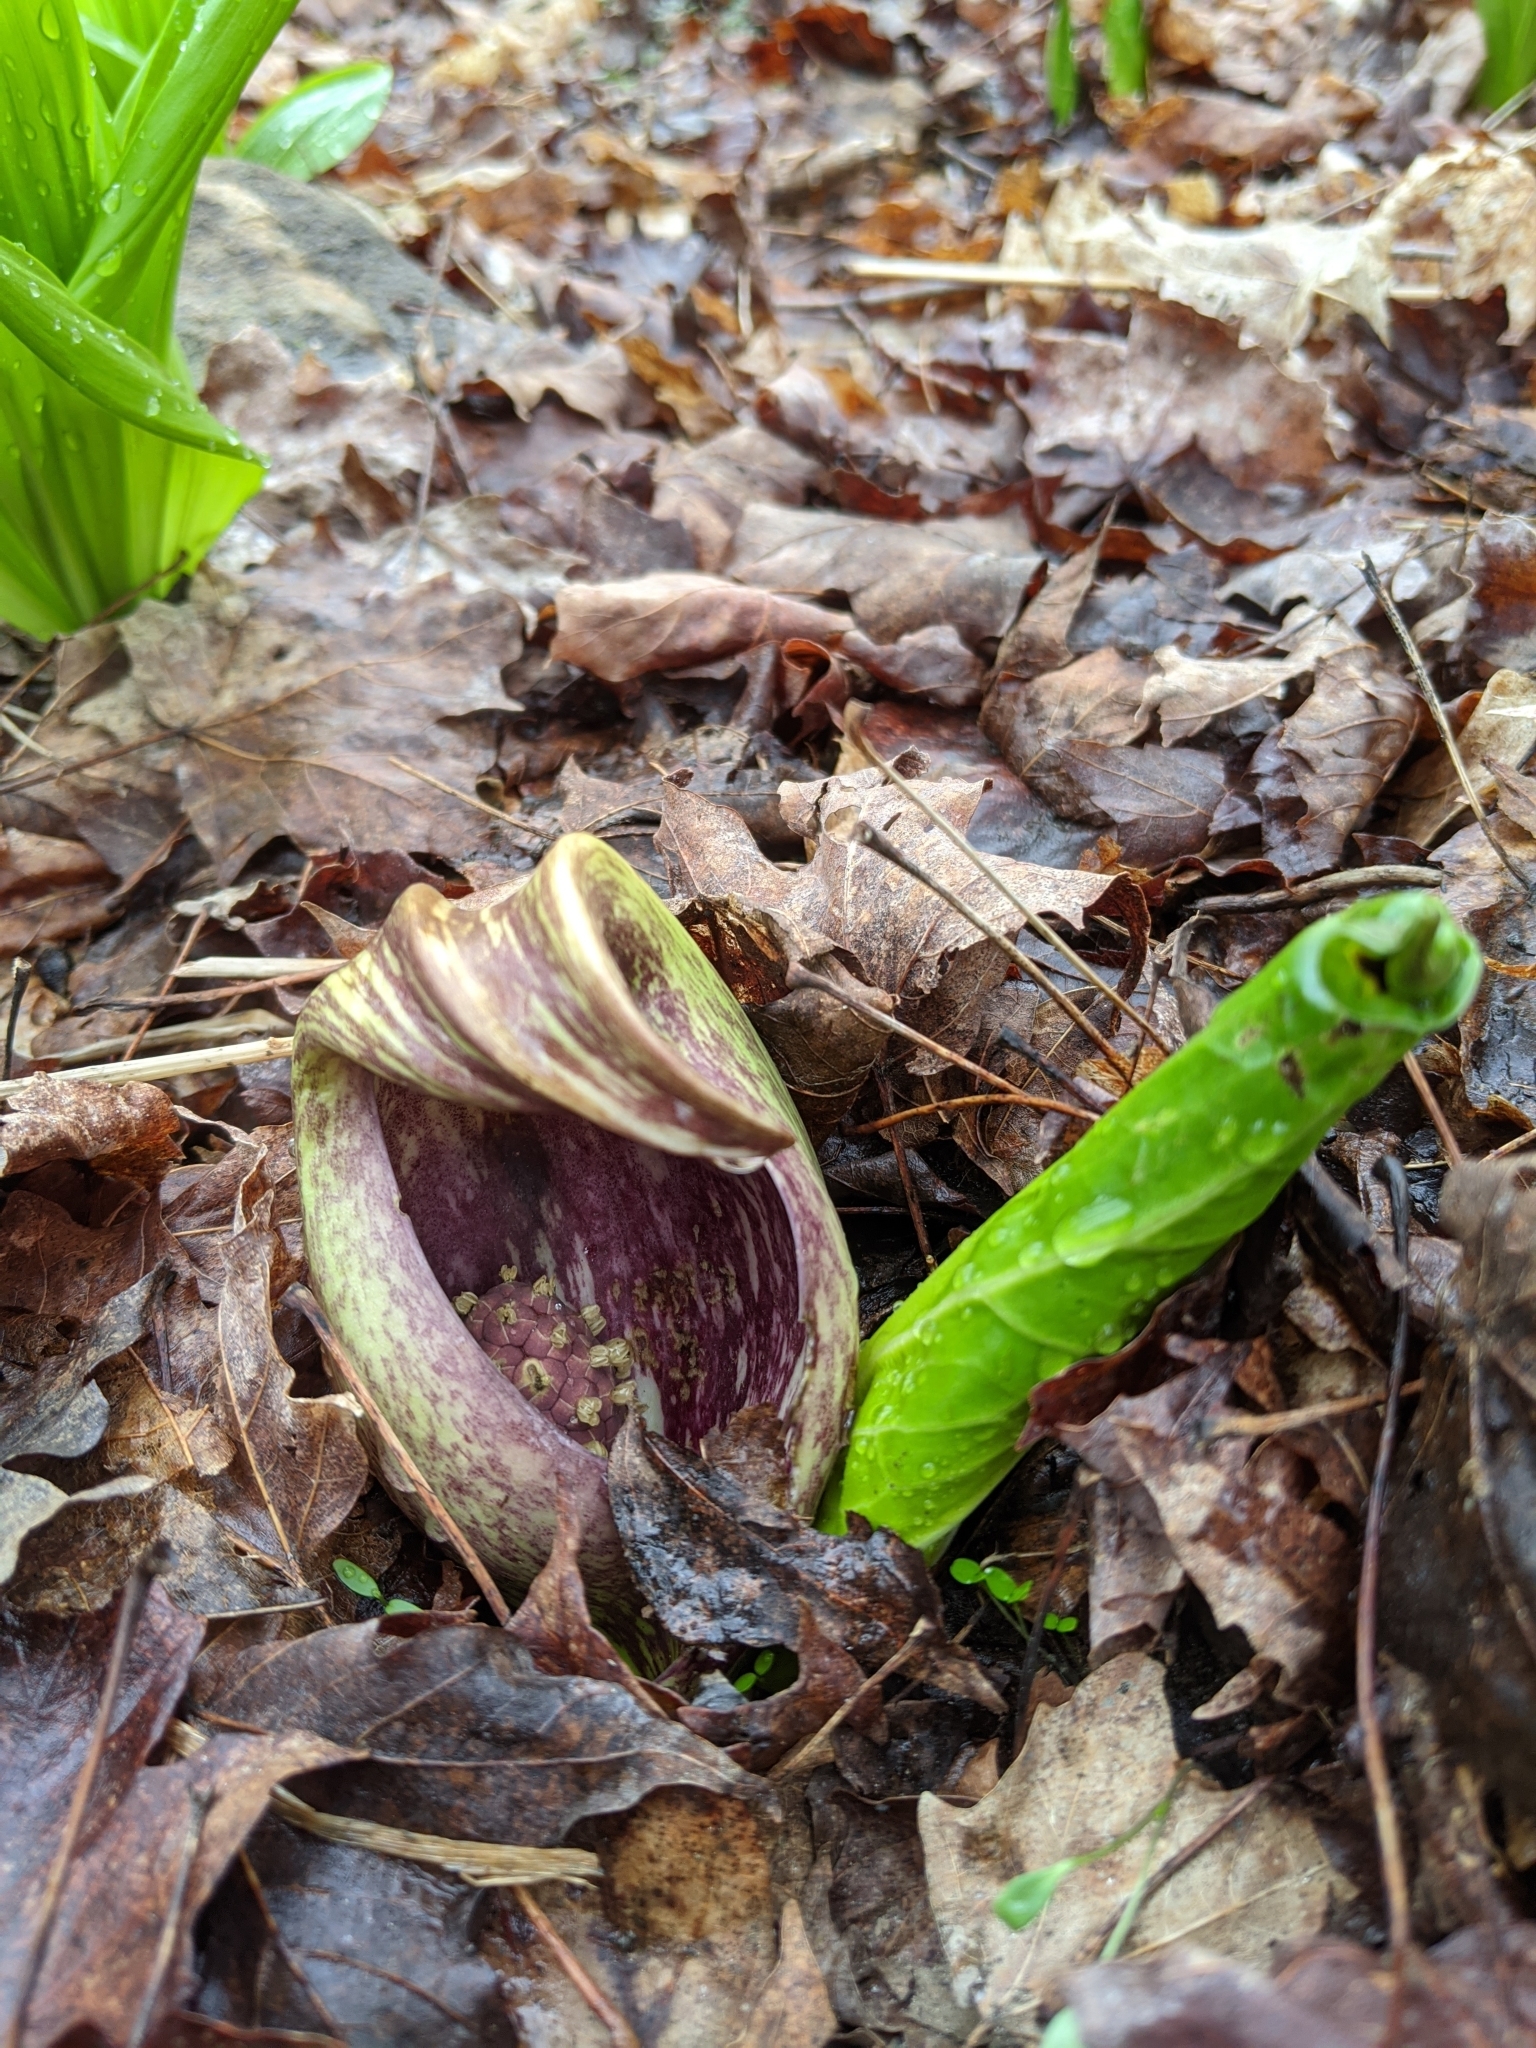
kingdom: Plantae
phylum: Tracheophyta
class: Liliopsida
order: Alismatales
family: Araceae
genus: Symplocarpus
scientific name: Symplocarpus foetidus
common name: Eastern skunk cabbage
